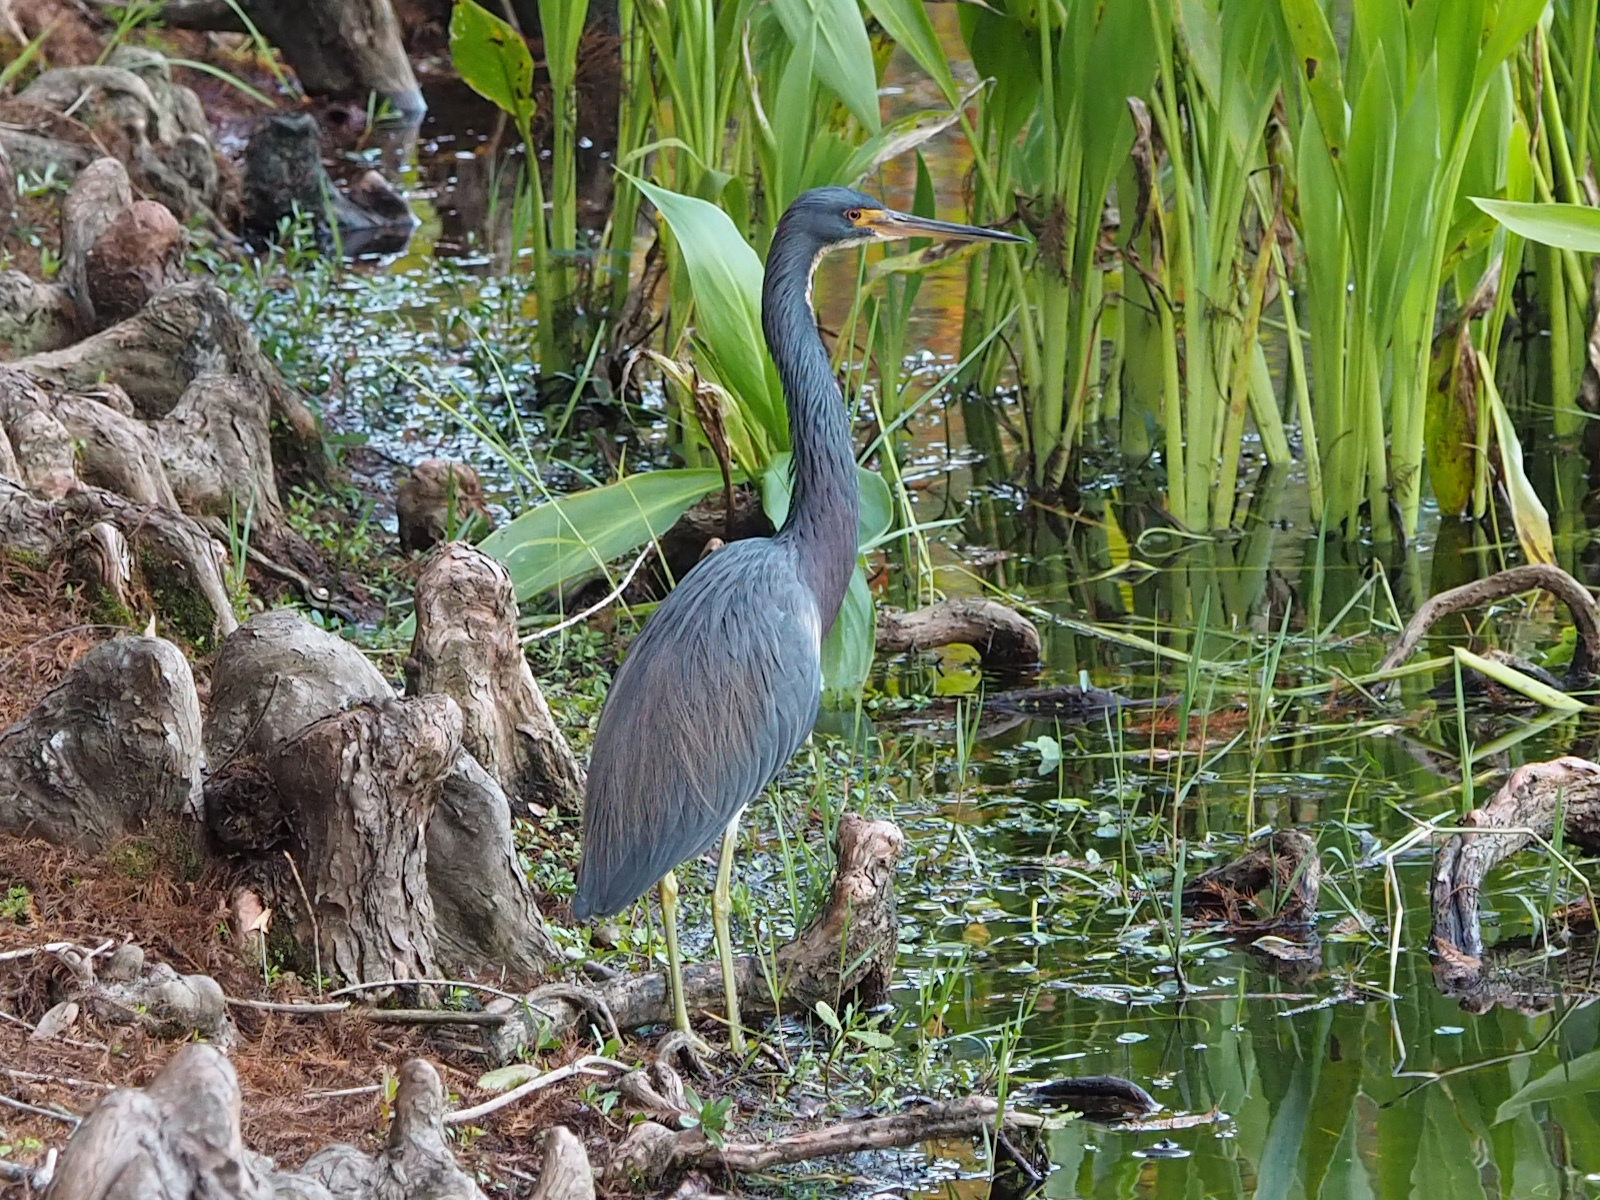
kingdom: Animalia
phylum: Chordata
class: Aves
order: Pelecaniformes
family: Ardeidae
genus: Egretta
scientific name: Egretta tricolor
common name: Tricolored heron
